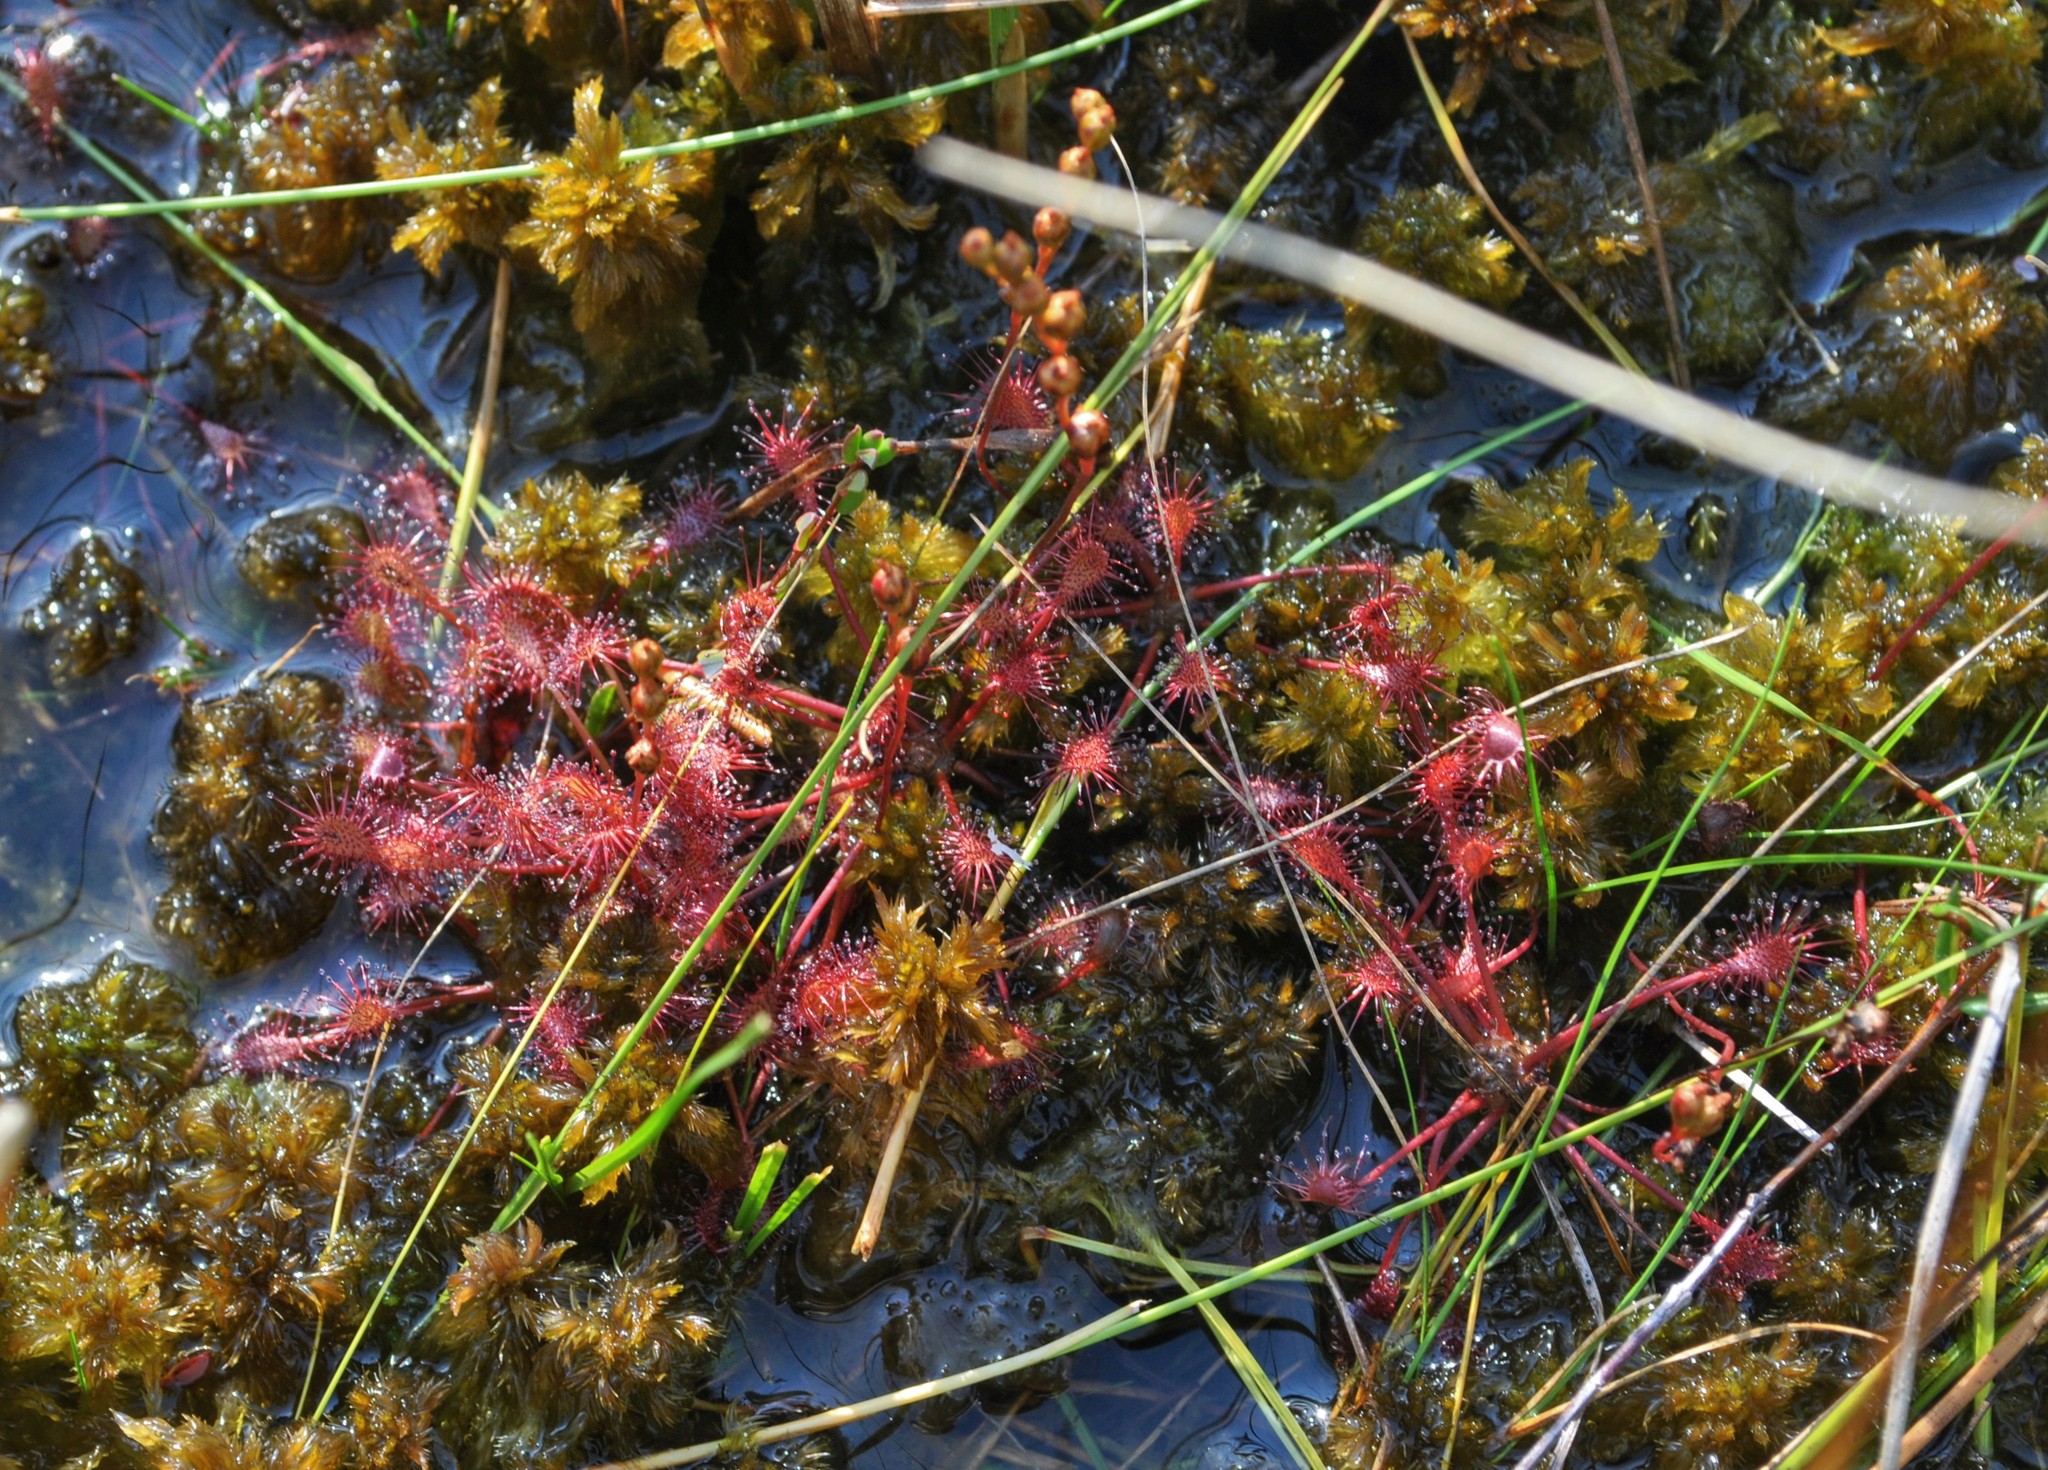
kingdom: Plantae
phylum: Tracheophyta
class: Magnoliopsida
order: Caryophyllales
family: Droseraceae
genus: Drosera
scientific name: Drosera intermedia
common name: Oblong-leaved sundew
